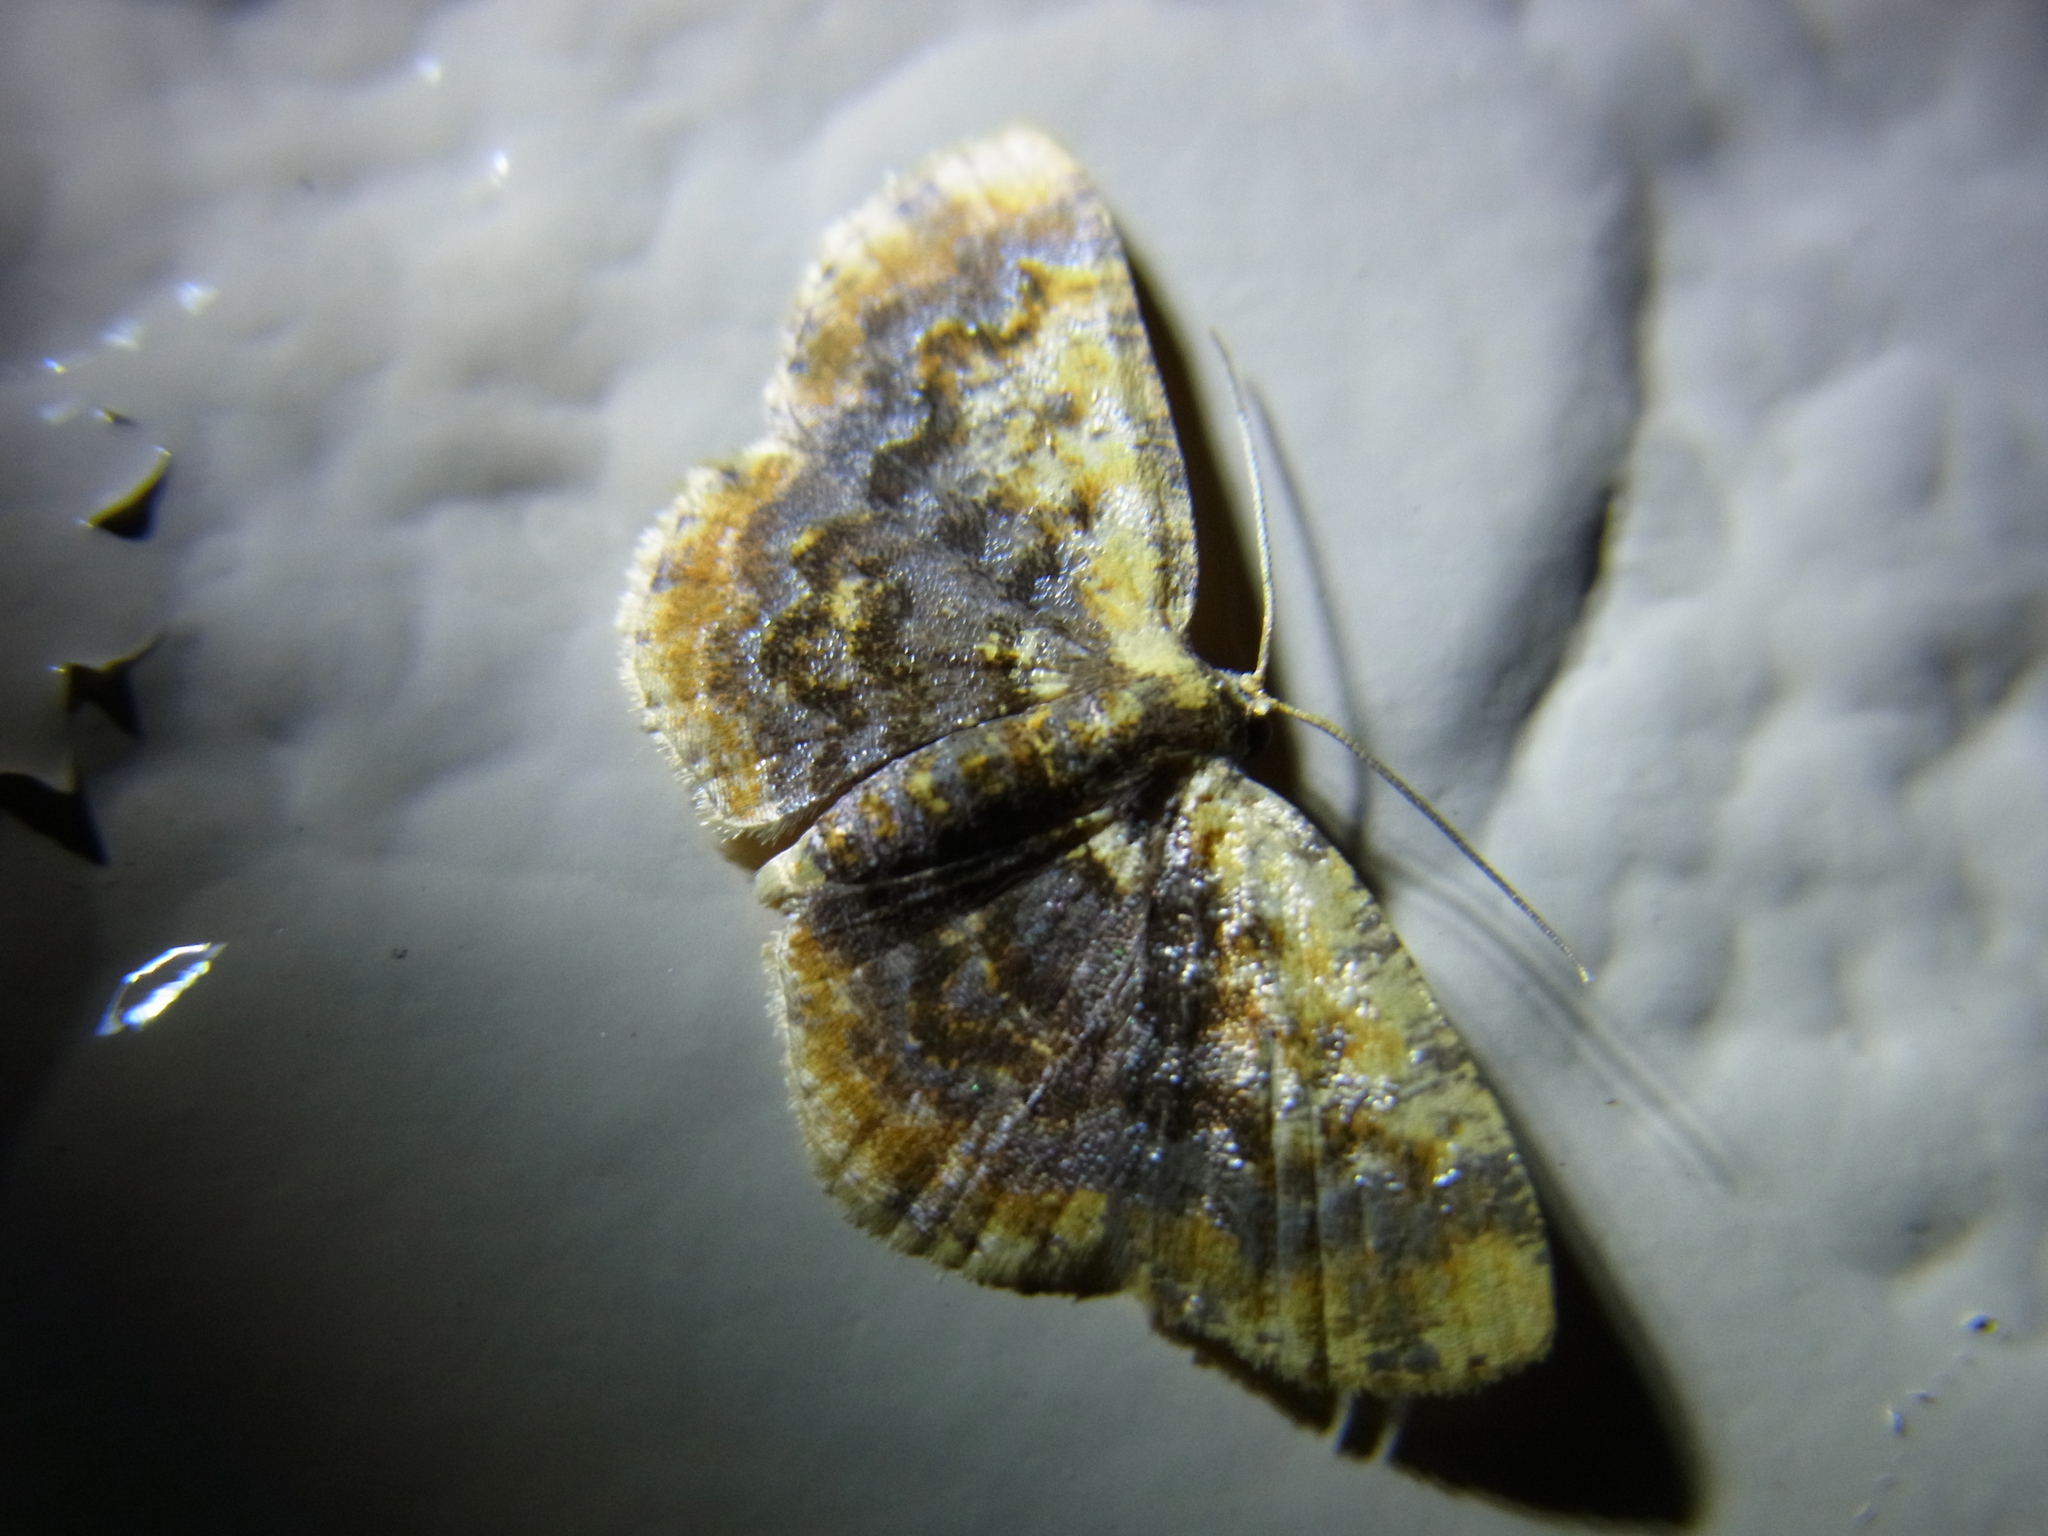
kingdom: Animalia
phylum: Arthropoda
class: Insecta
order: Lepidoptera
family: Geometridae
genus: Ninodes
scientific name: Ninodes splendens
